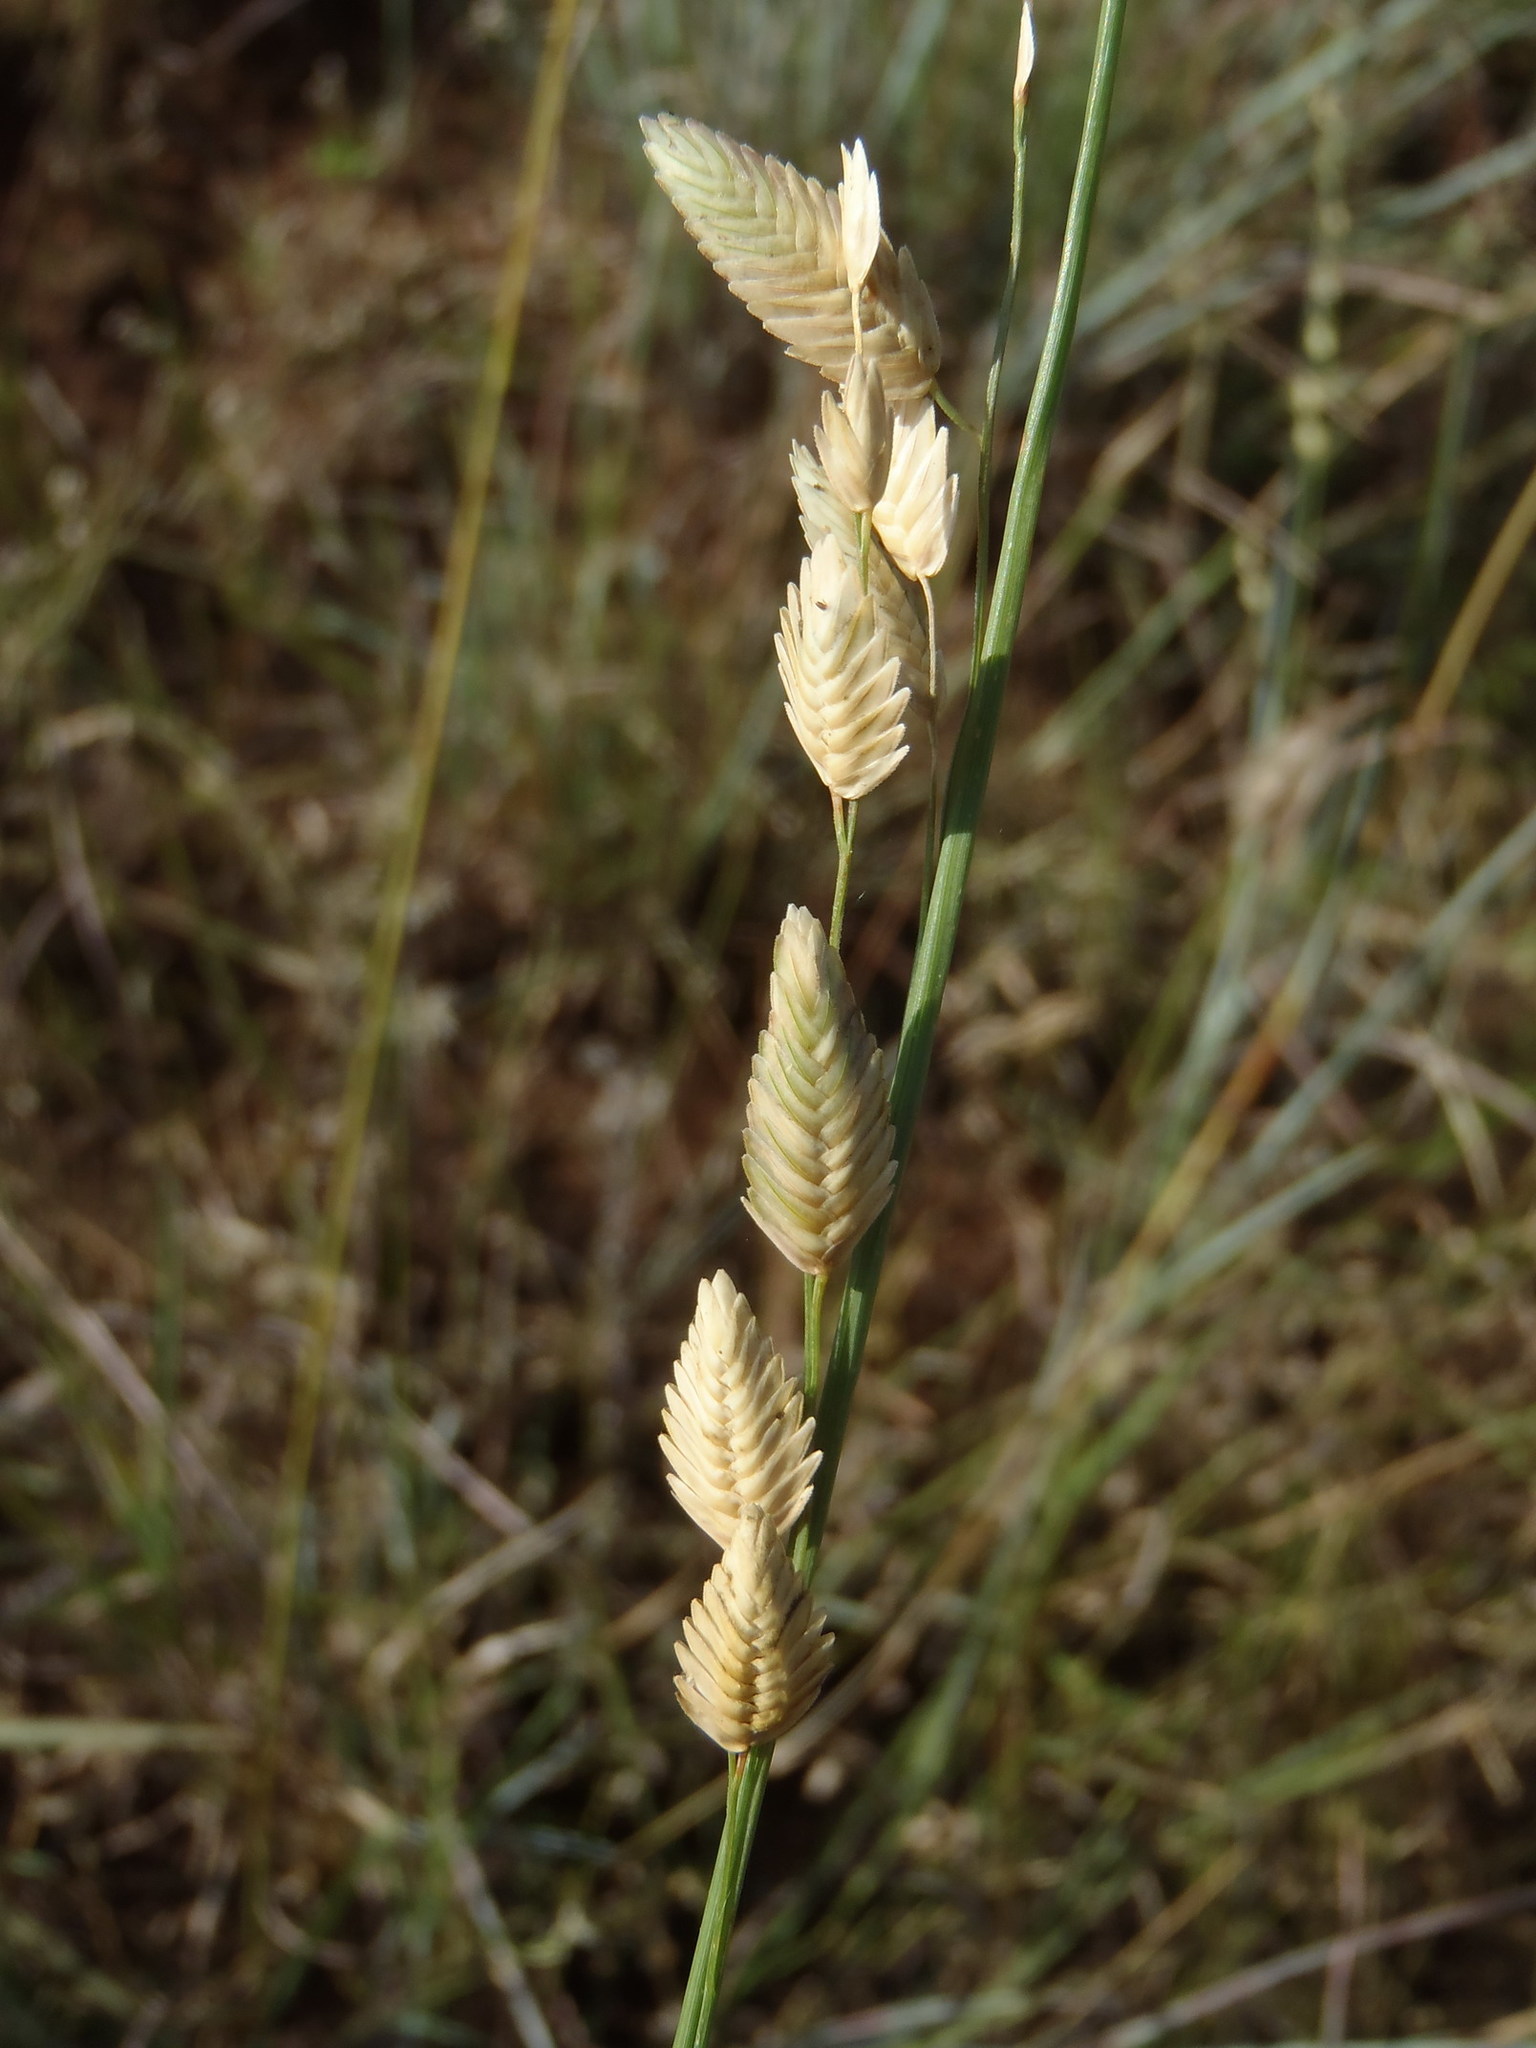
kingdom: Plantae
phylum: Tracheophyta
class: Liliopsida
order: Poales
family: Poaceae
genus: Eragrostis
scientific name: Eragrostis superba
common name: Wilman lovegrass
